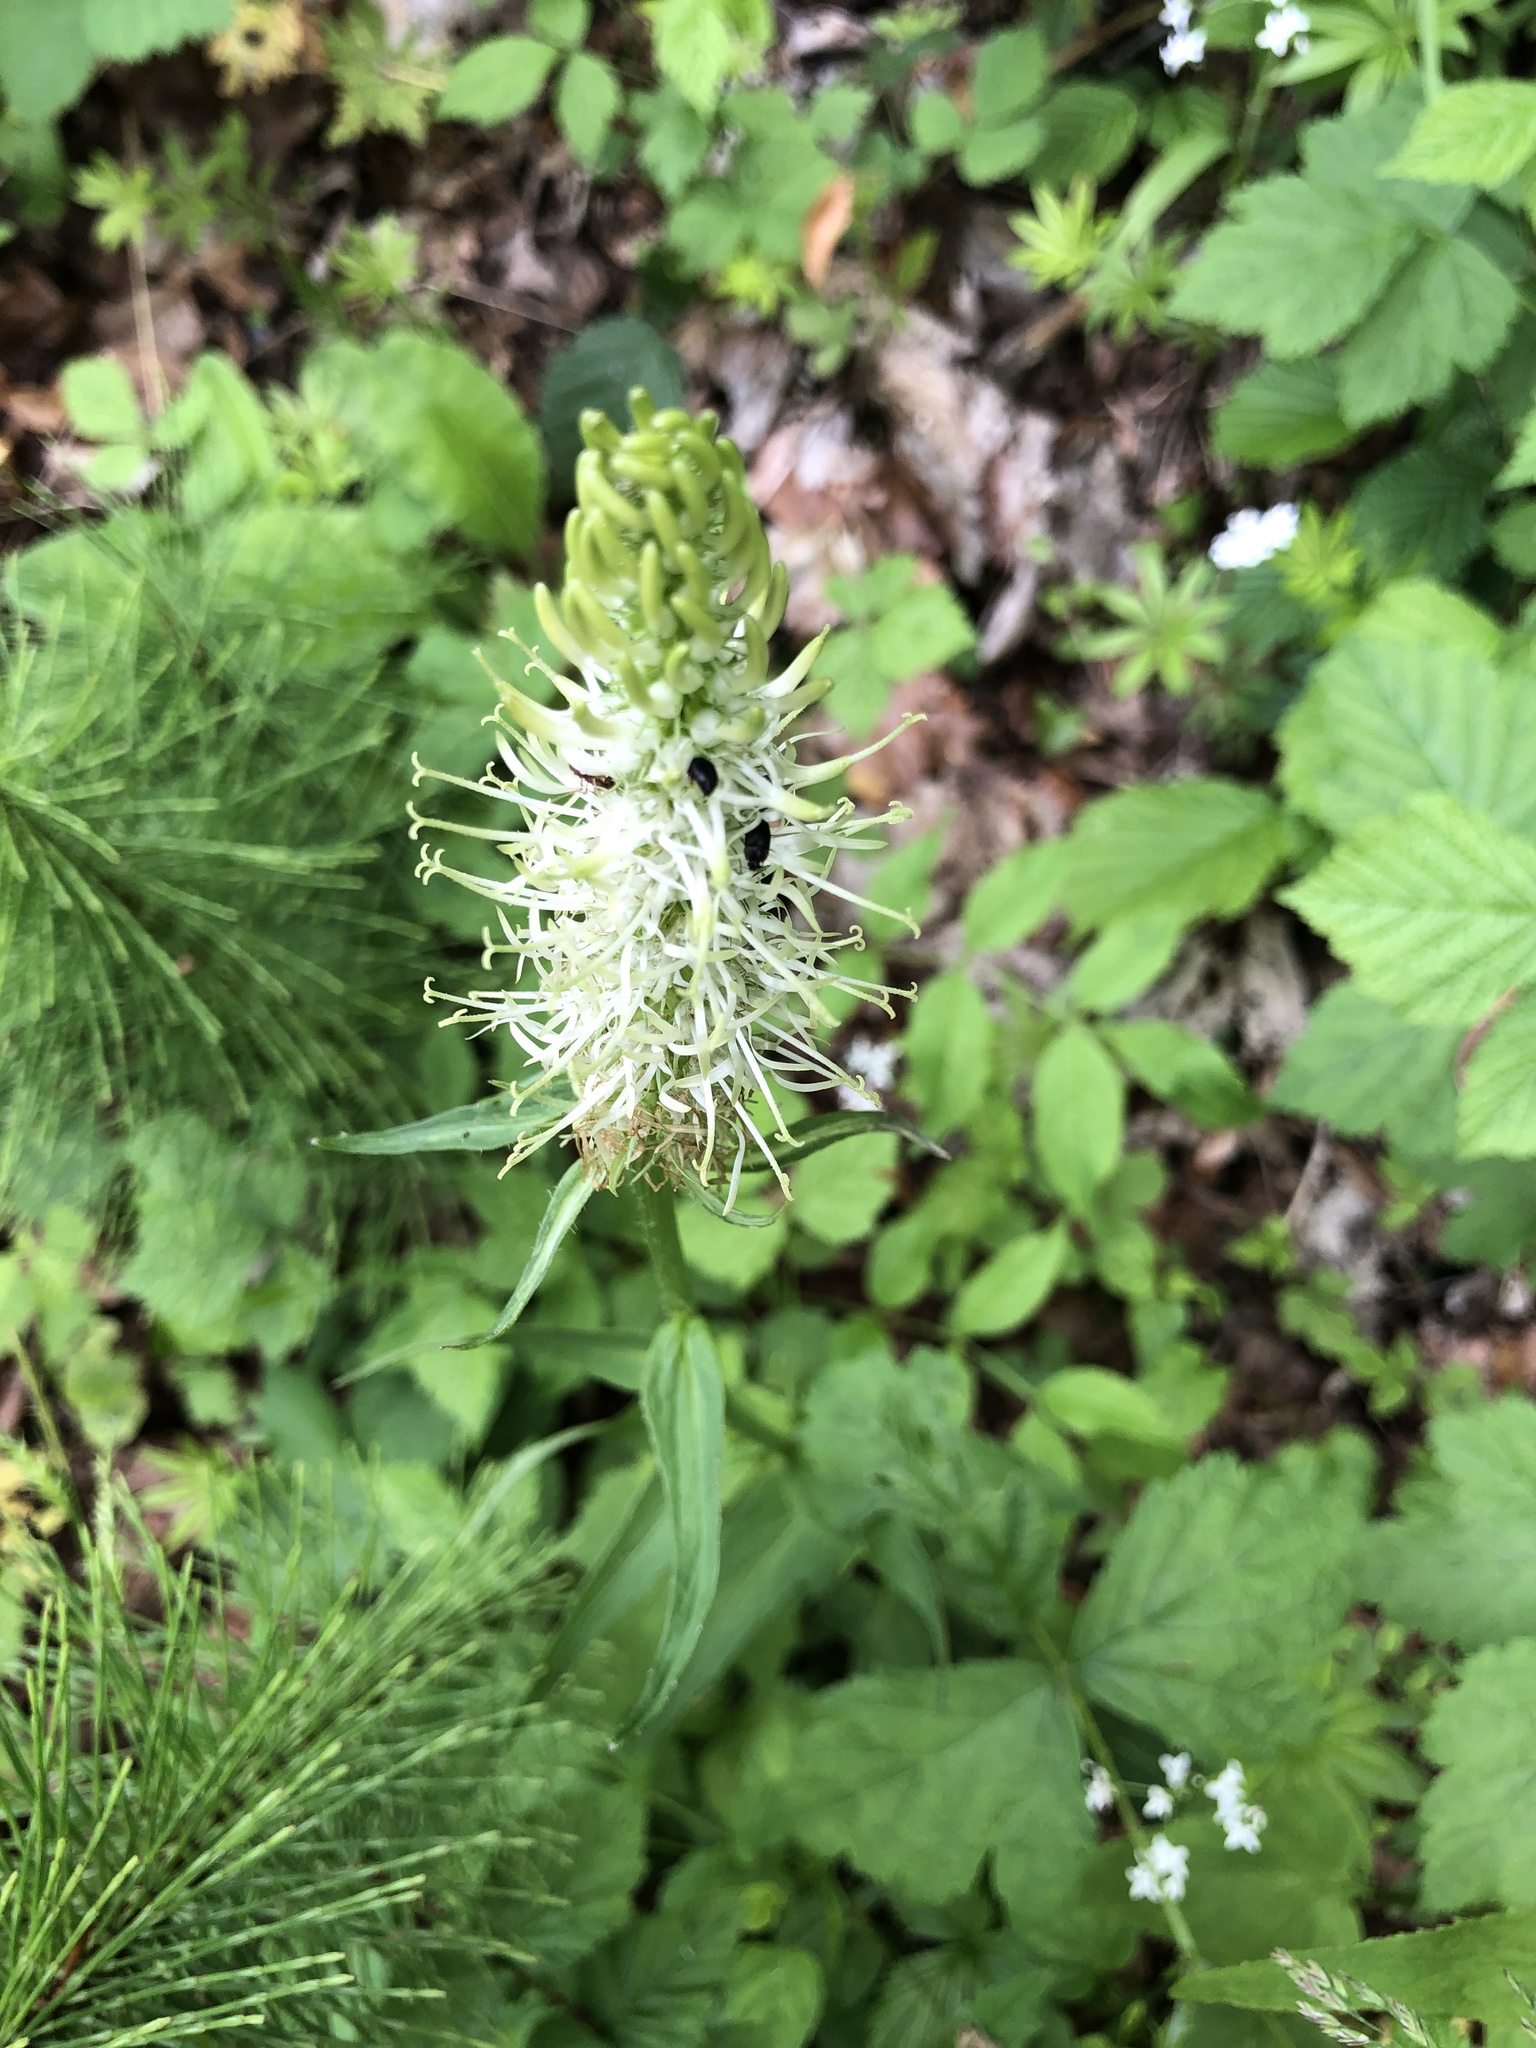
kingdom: Plantae
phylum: Tracheophyta
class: Magnoliopsida
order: Asterales
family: Campanulaceae
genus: Phyteuma
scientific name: Phyteuma spicatum
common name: Spiked rampion
